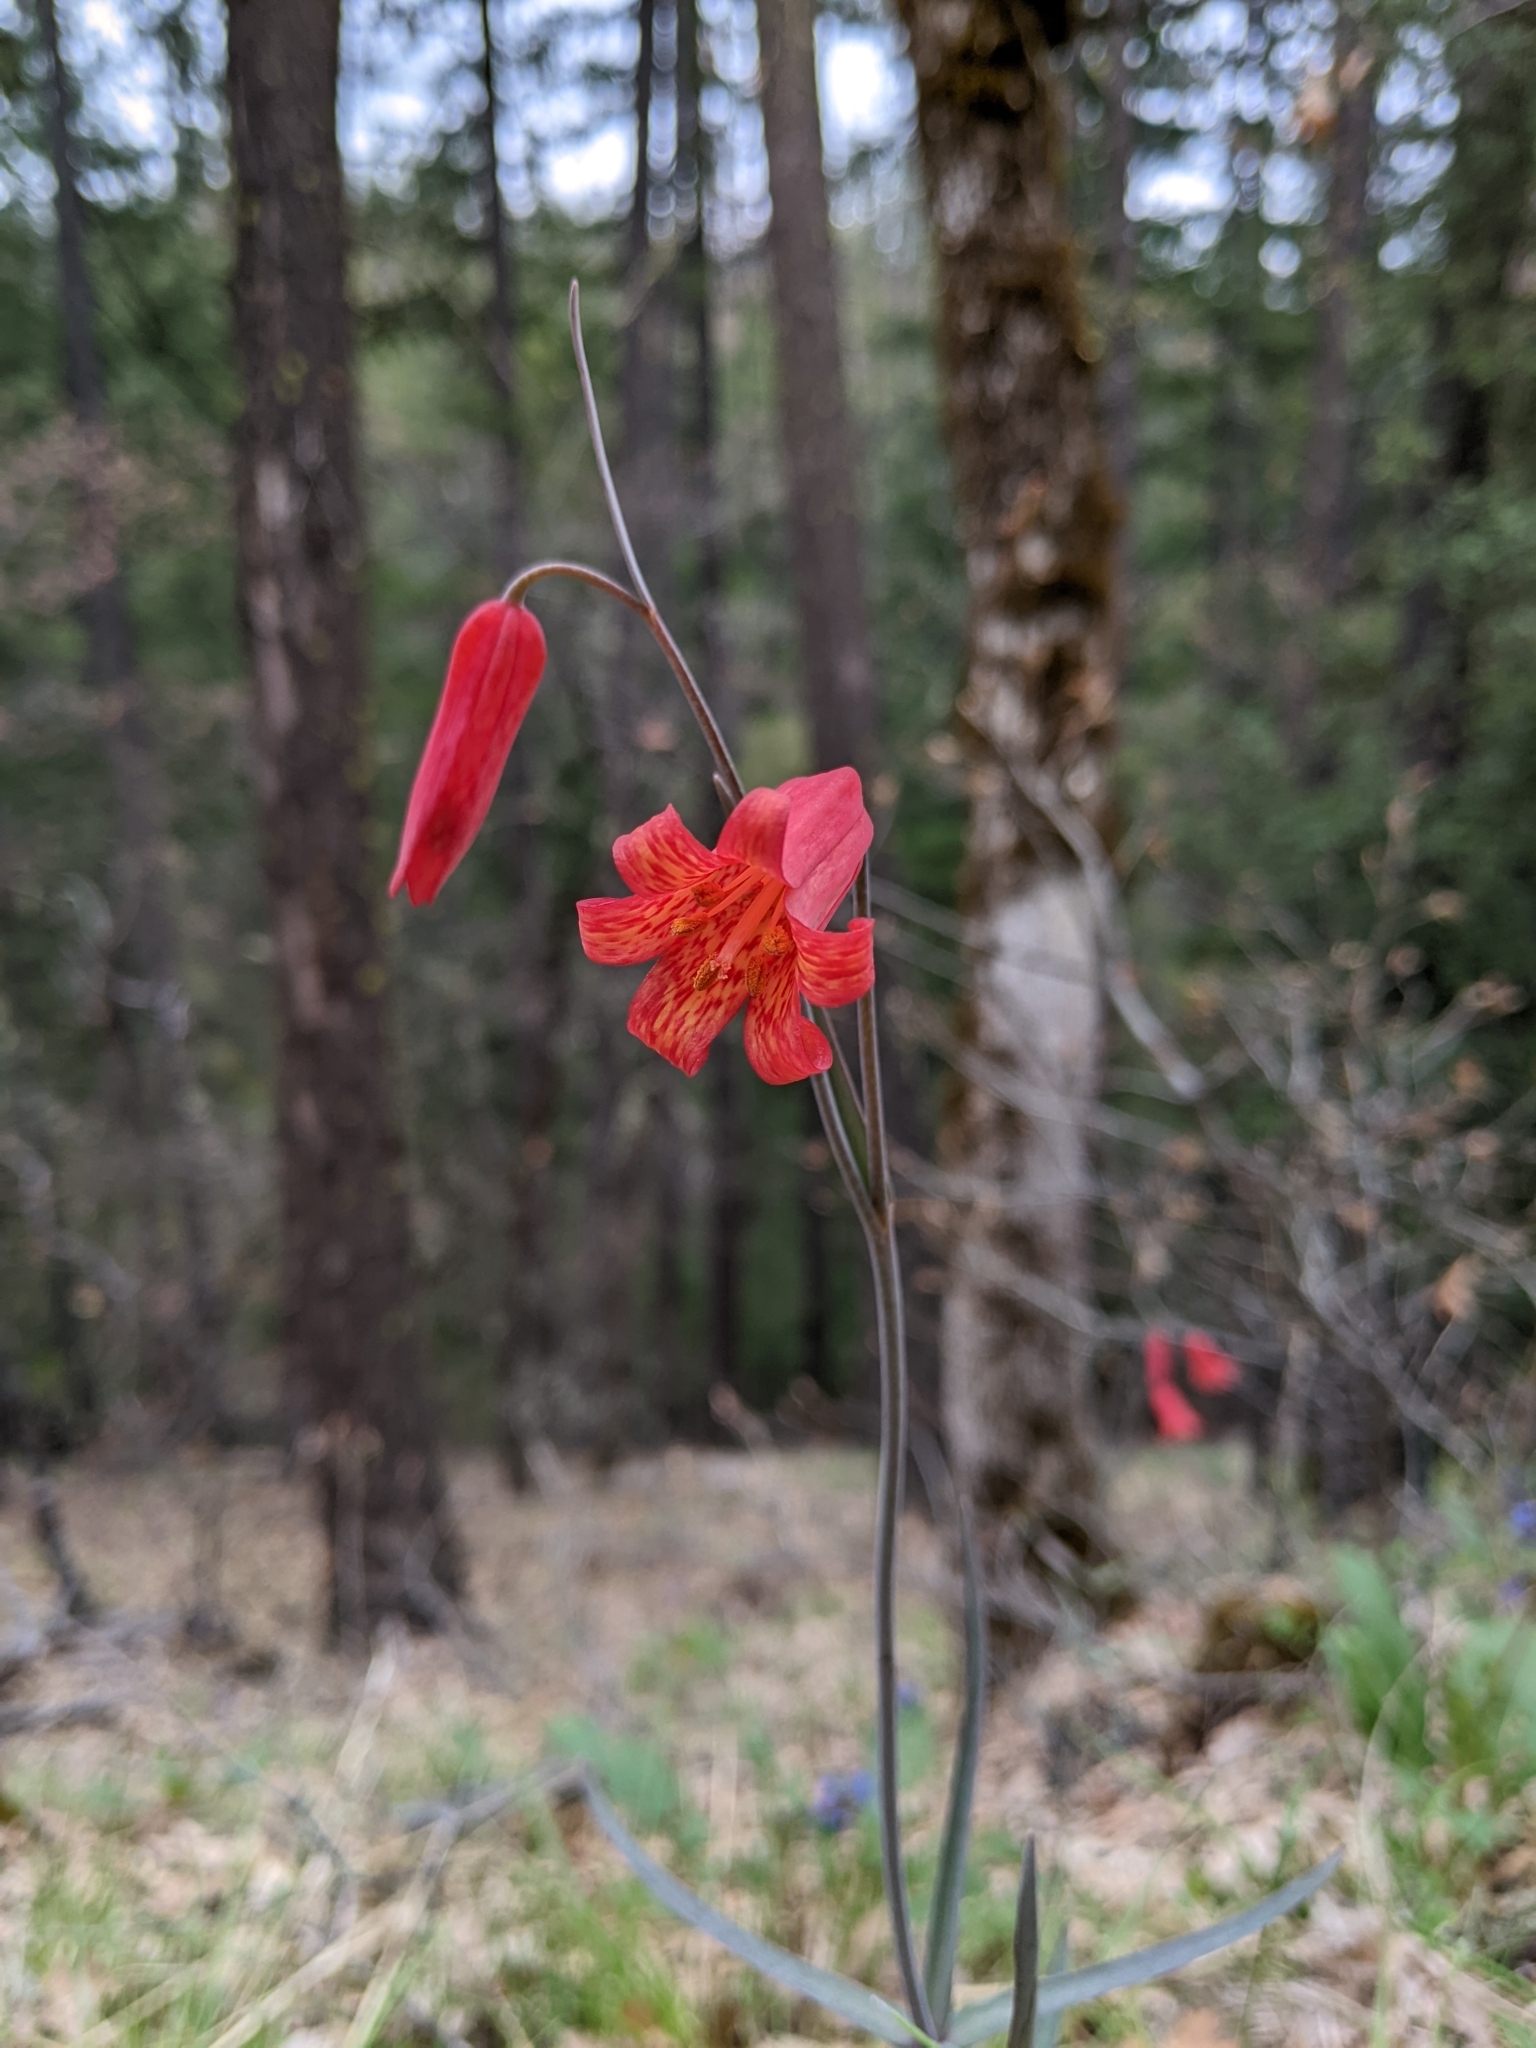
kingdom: Plantae
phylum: Tracheophyta
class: Liliopsida
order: Liliales
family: Liliaceae
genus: Fritillaria
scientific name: Fritillaria recurva
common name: Scarlet fritillary
